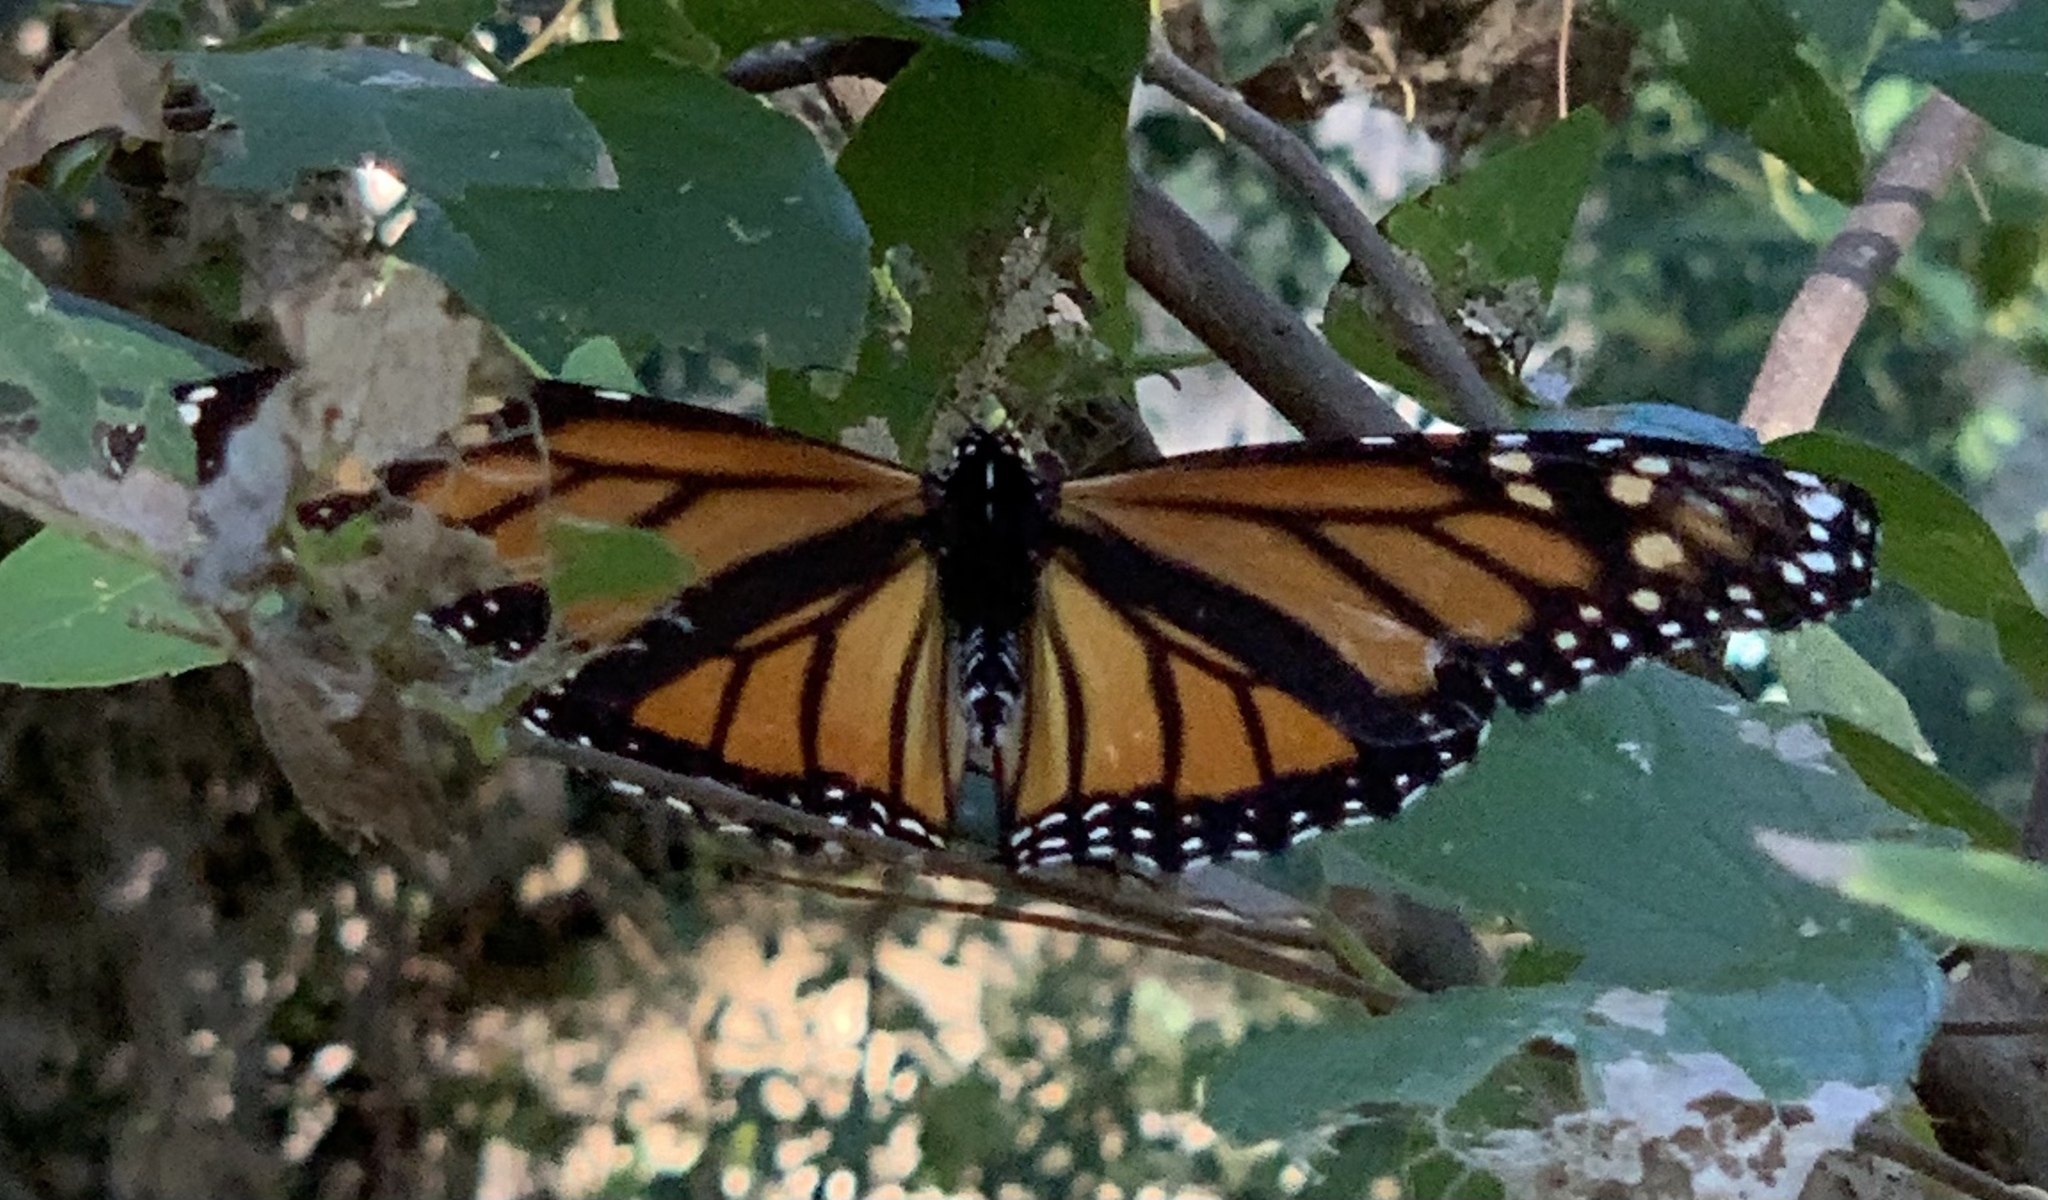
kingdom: Animalia
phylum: Arthropoda
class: Insecta
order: Lepidoptera
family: Nymphalidae
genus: Danaus
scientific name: Danaus plexippus
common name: Monarch
